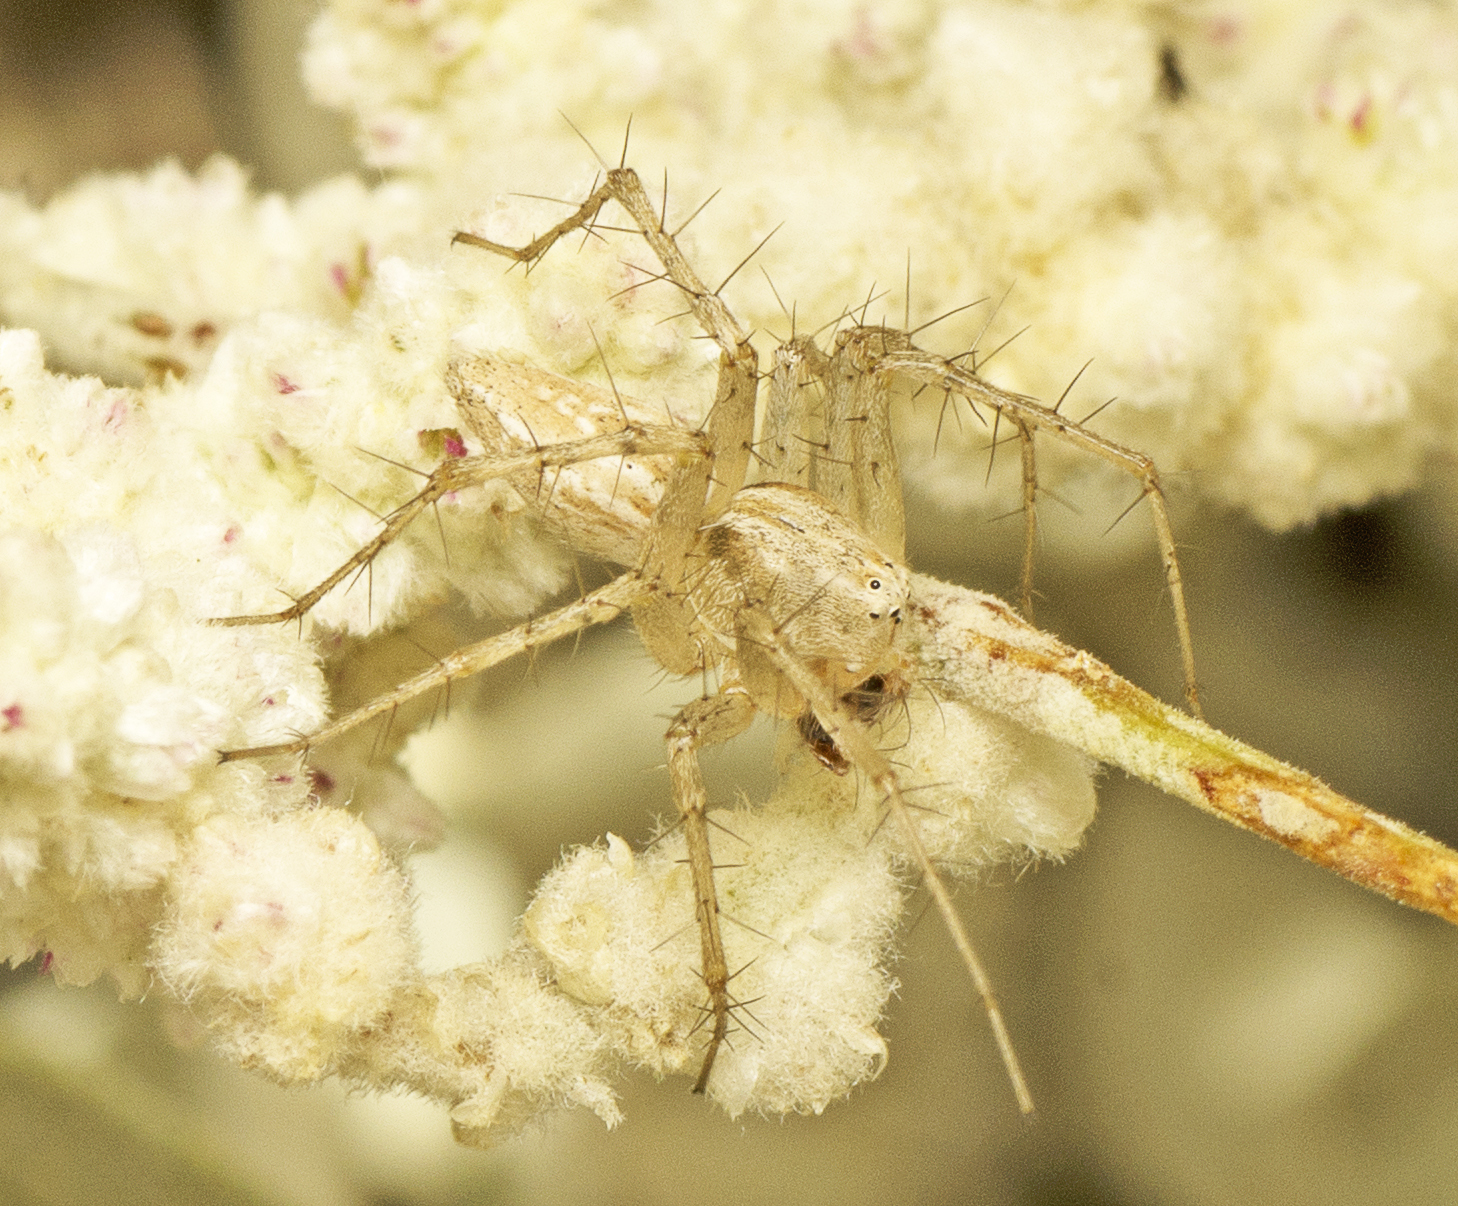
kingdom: Animalia
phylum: Arthropoda
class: Arachnida
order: Araneae
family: Oxyopidae
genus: Oxyopes
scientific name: Oxyopes attenuatus
